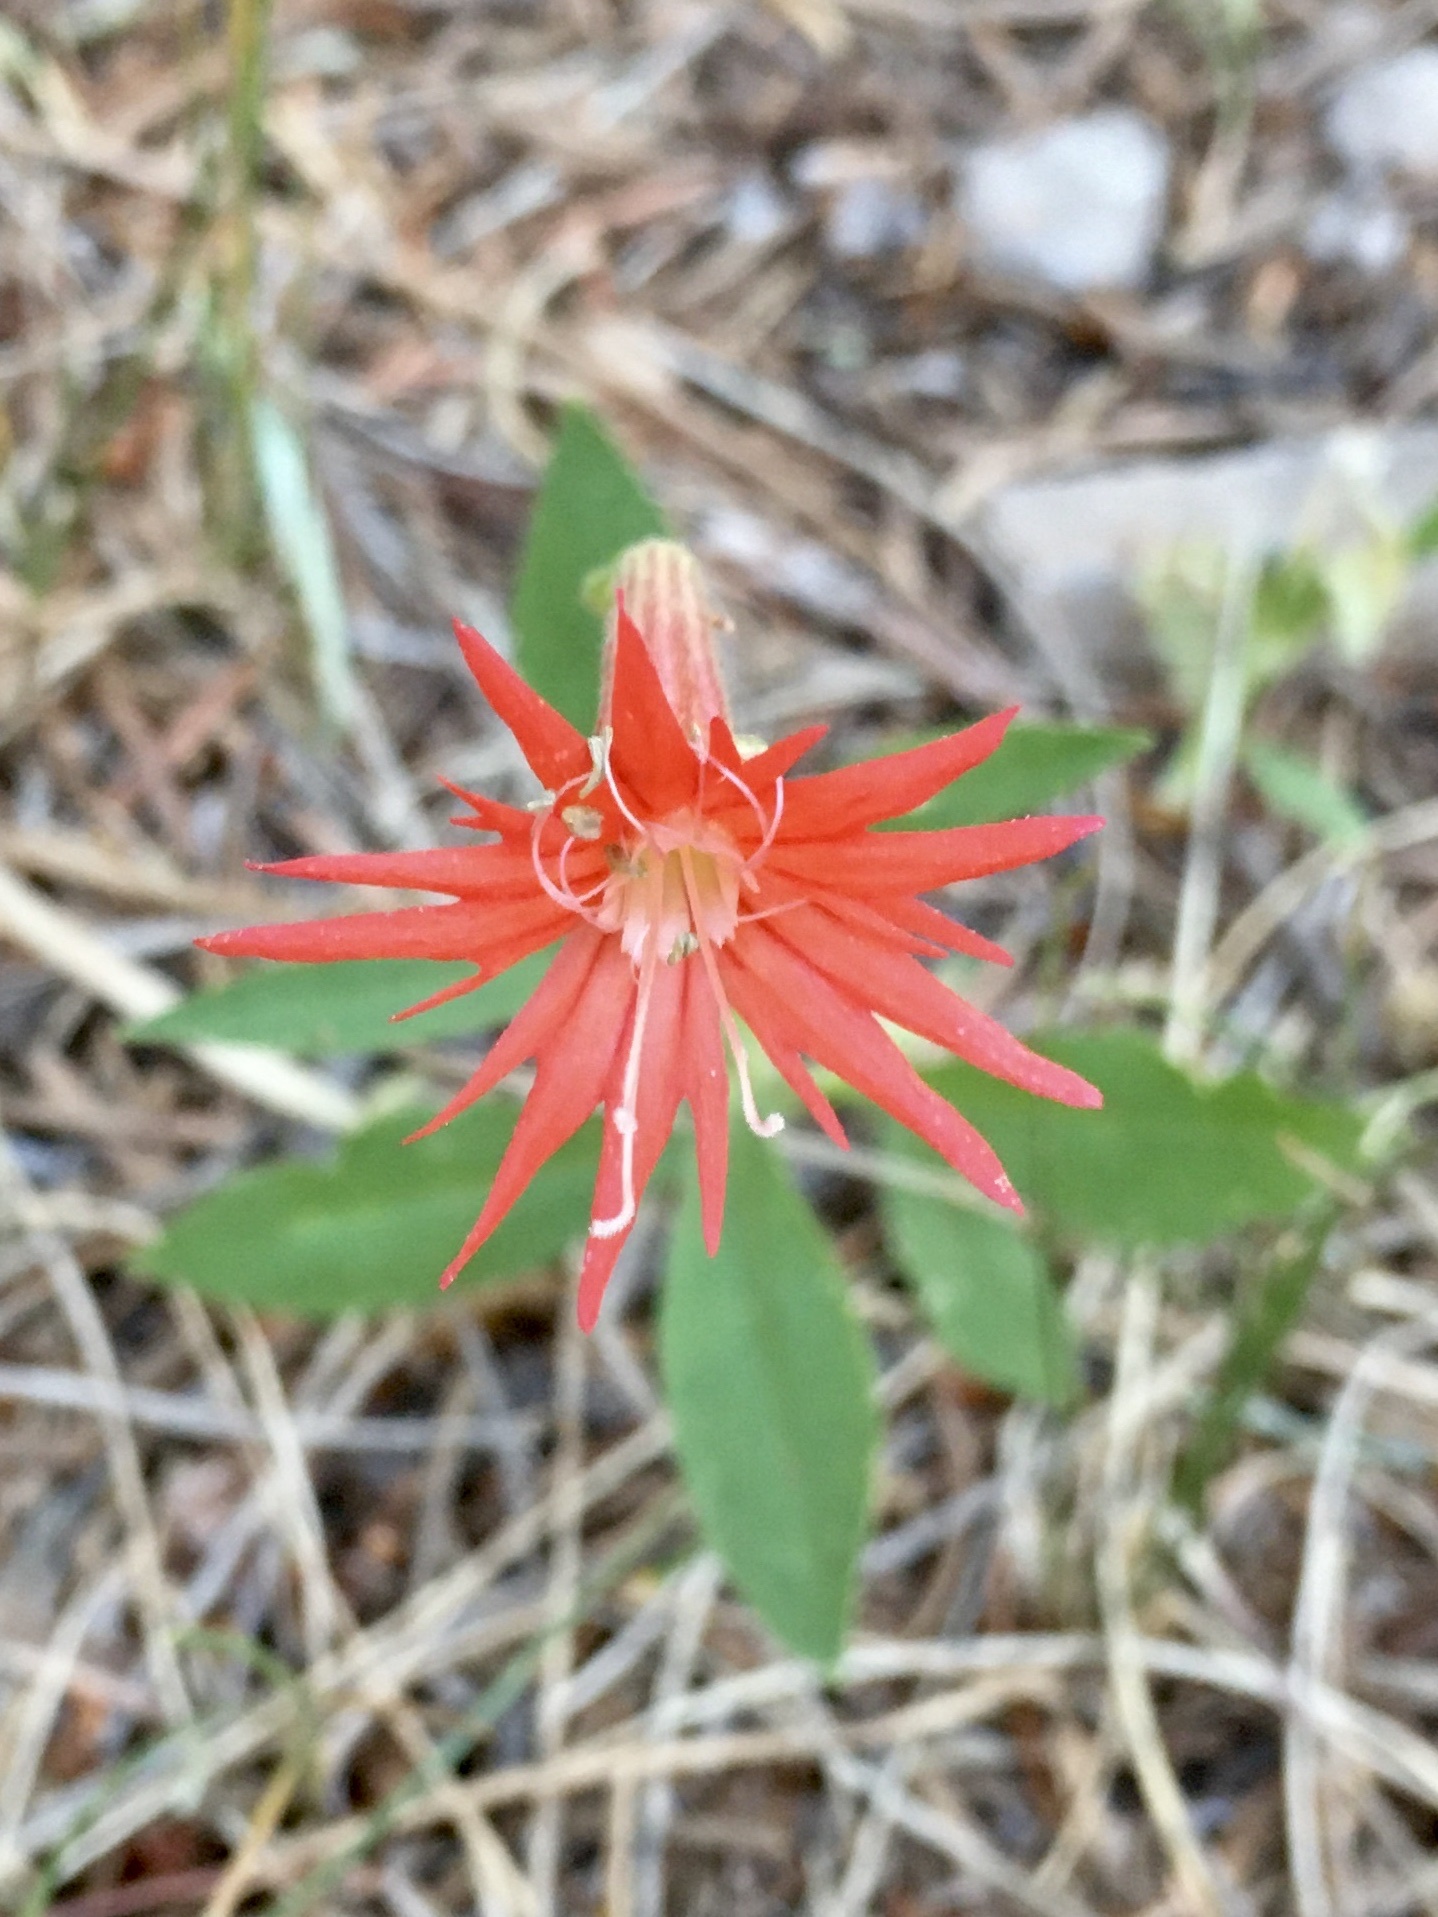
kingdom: Plantae
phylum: Tracheophyta
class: Magnoliopsida
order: Caryophyllales
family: Caryophyllaceae
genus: Silene
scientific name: Silene laciniata
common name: Indian-pink
